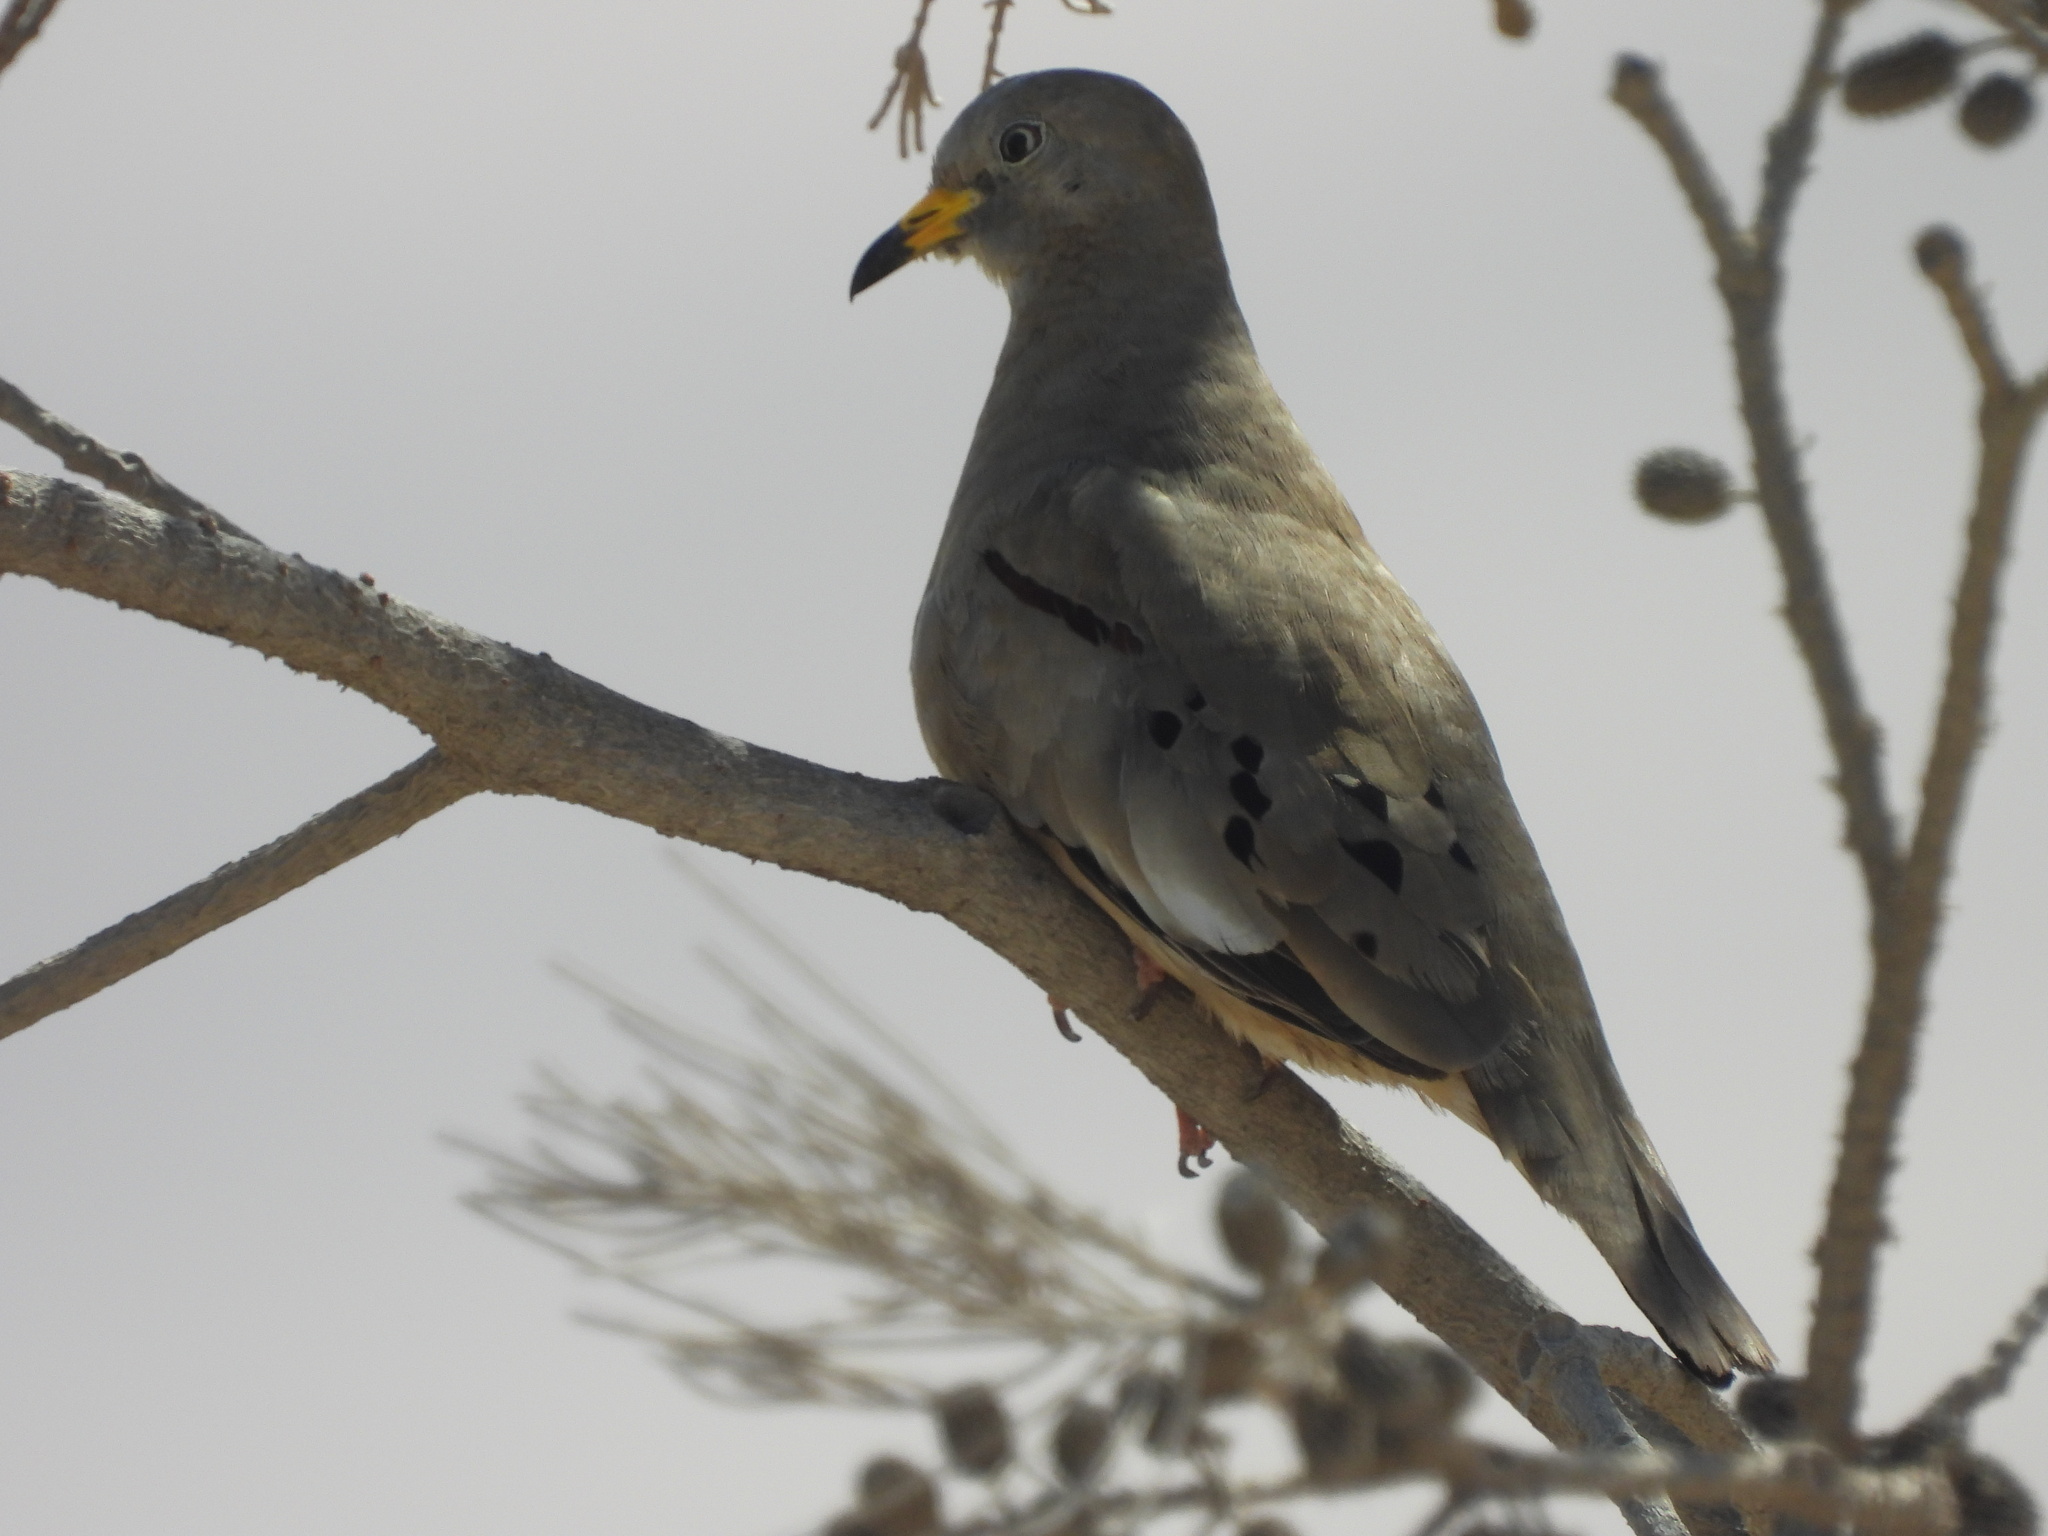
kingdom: Animalia
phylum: Chordata
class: Aves
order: Columbiformes
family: Columbidae
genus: Columbina
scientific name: Columbina cruziana
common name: Croaking ground dove
